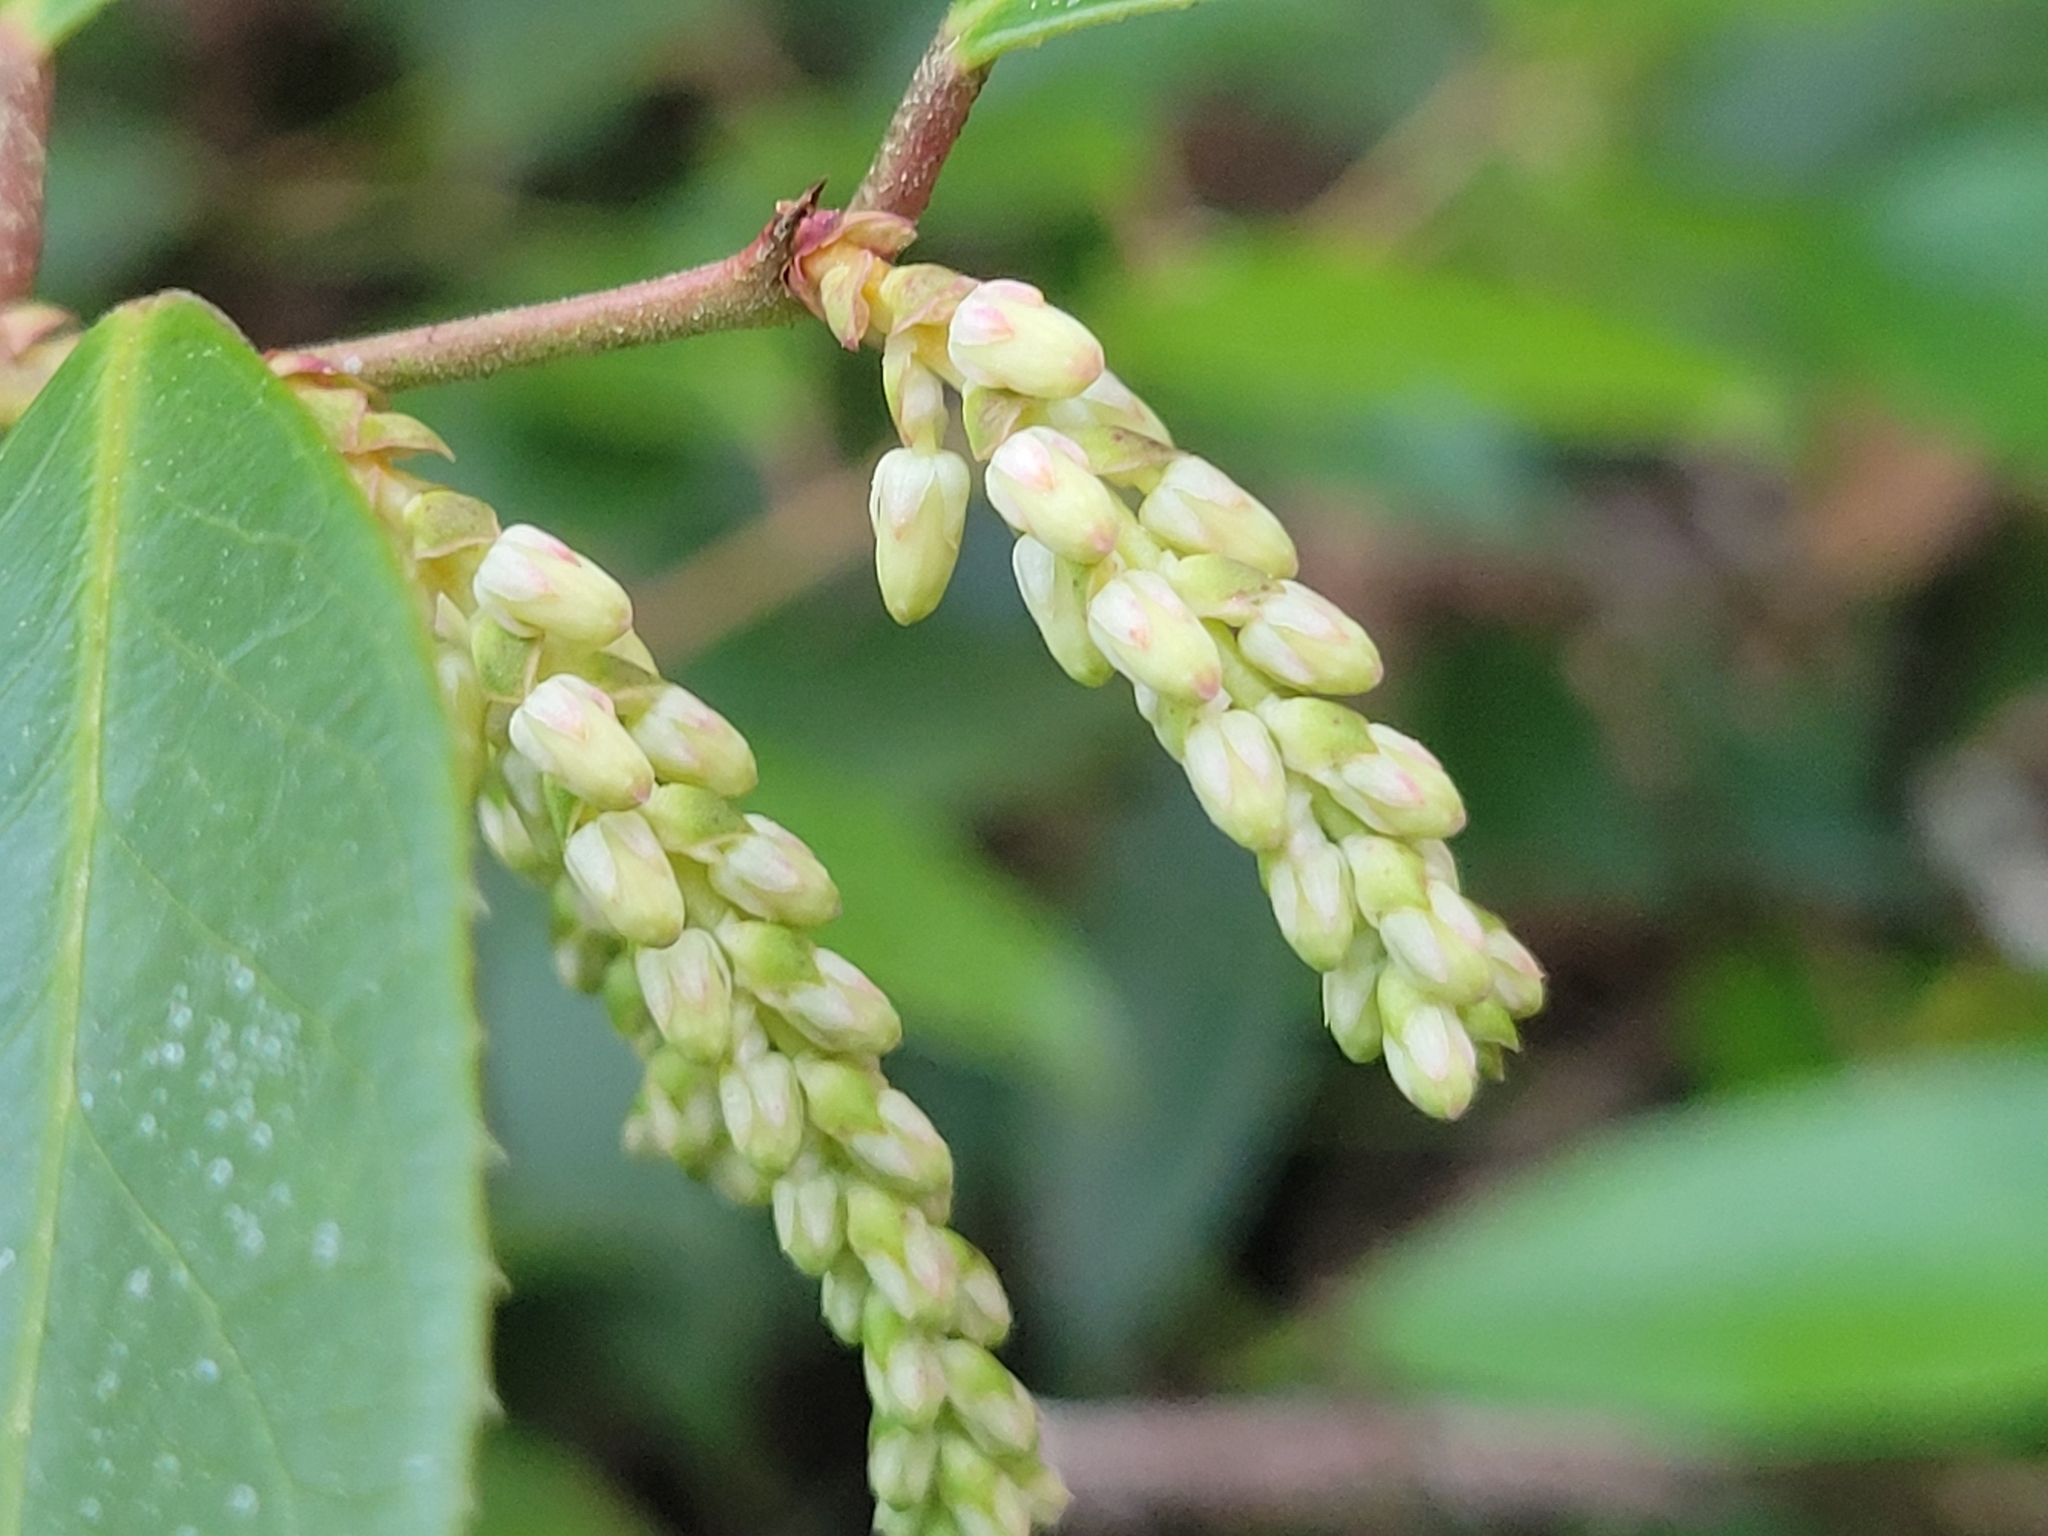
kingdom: Plantae
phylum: Tracheophyta
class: Magnoliopsida
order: Ericales
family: Ericaceae
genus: Leucothoe
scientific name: Leucothoe fontanesiana
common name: Fetterbush
